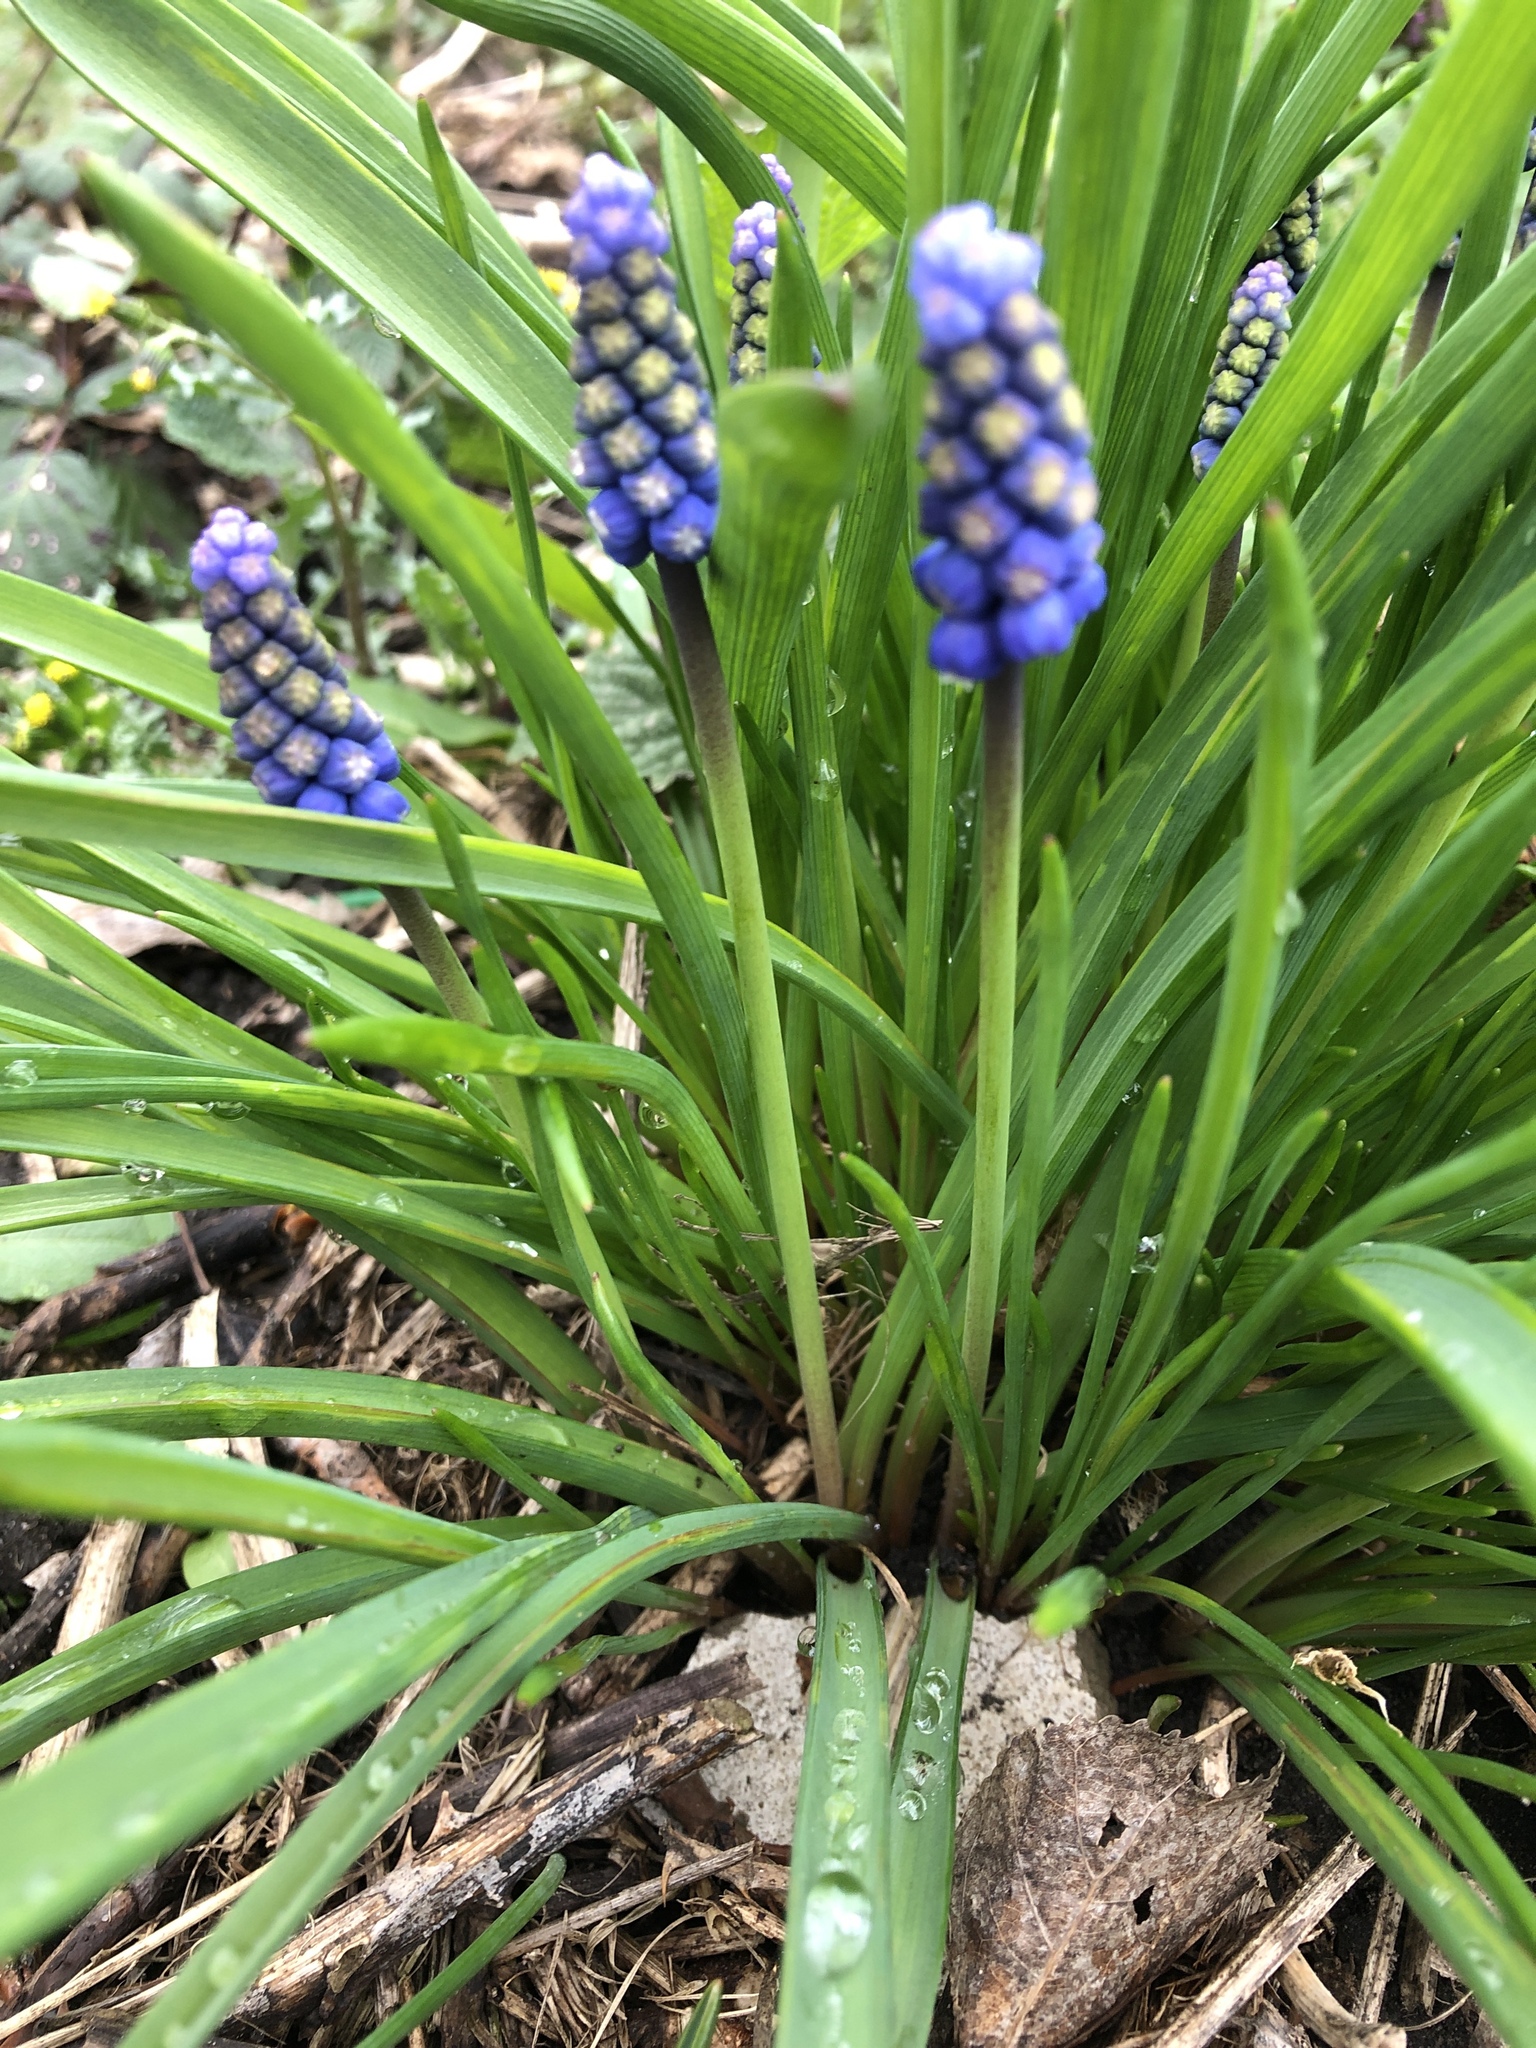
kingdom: Plantae
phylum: Tracheophyta
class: Liliopsida
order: Asparagales
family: Asparagaceae
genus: Muscari
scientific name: Muscari armeniacum
